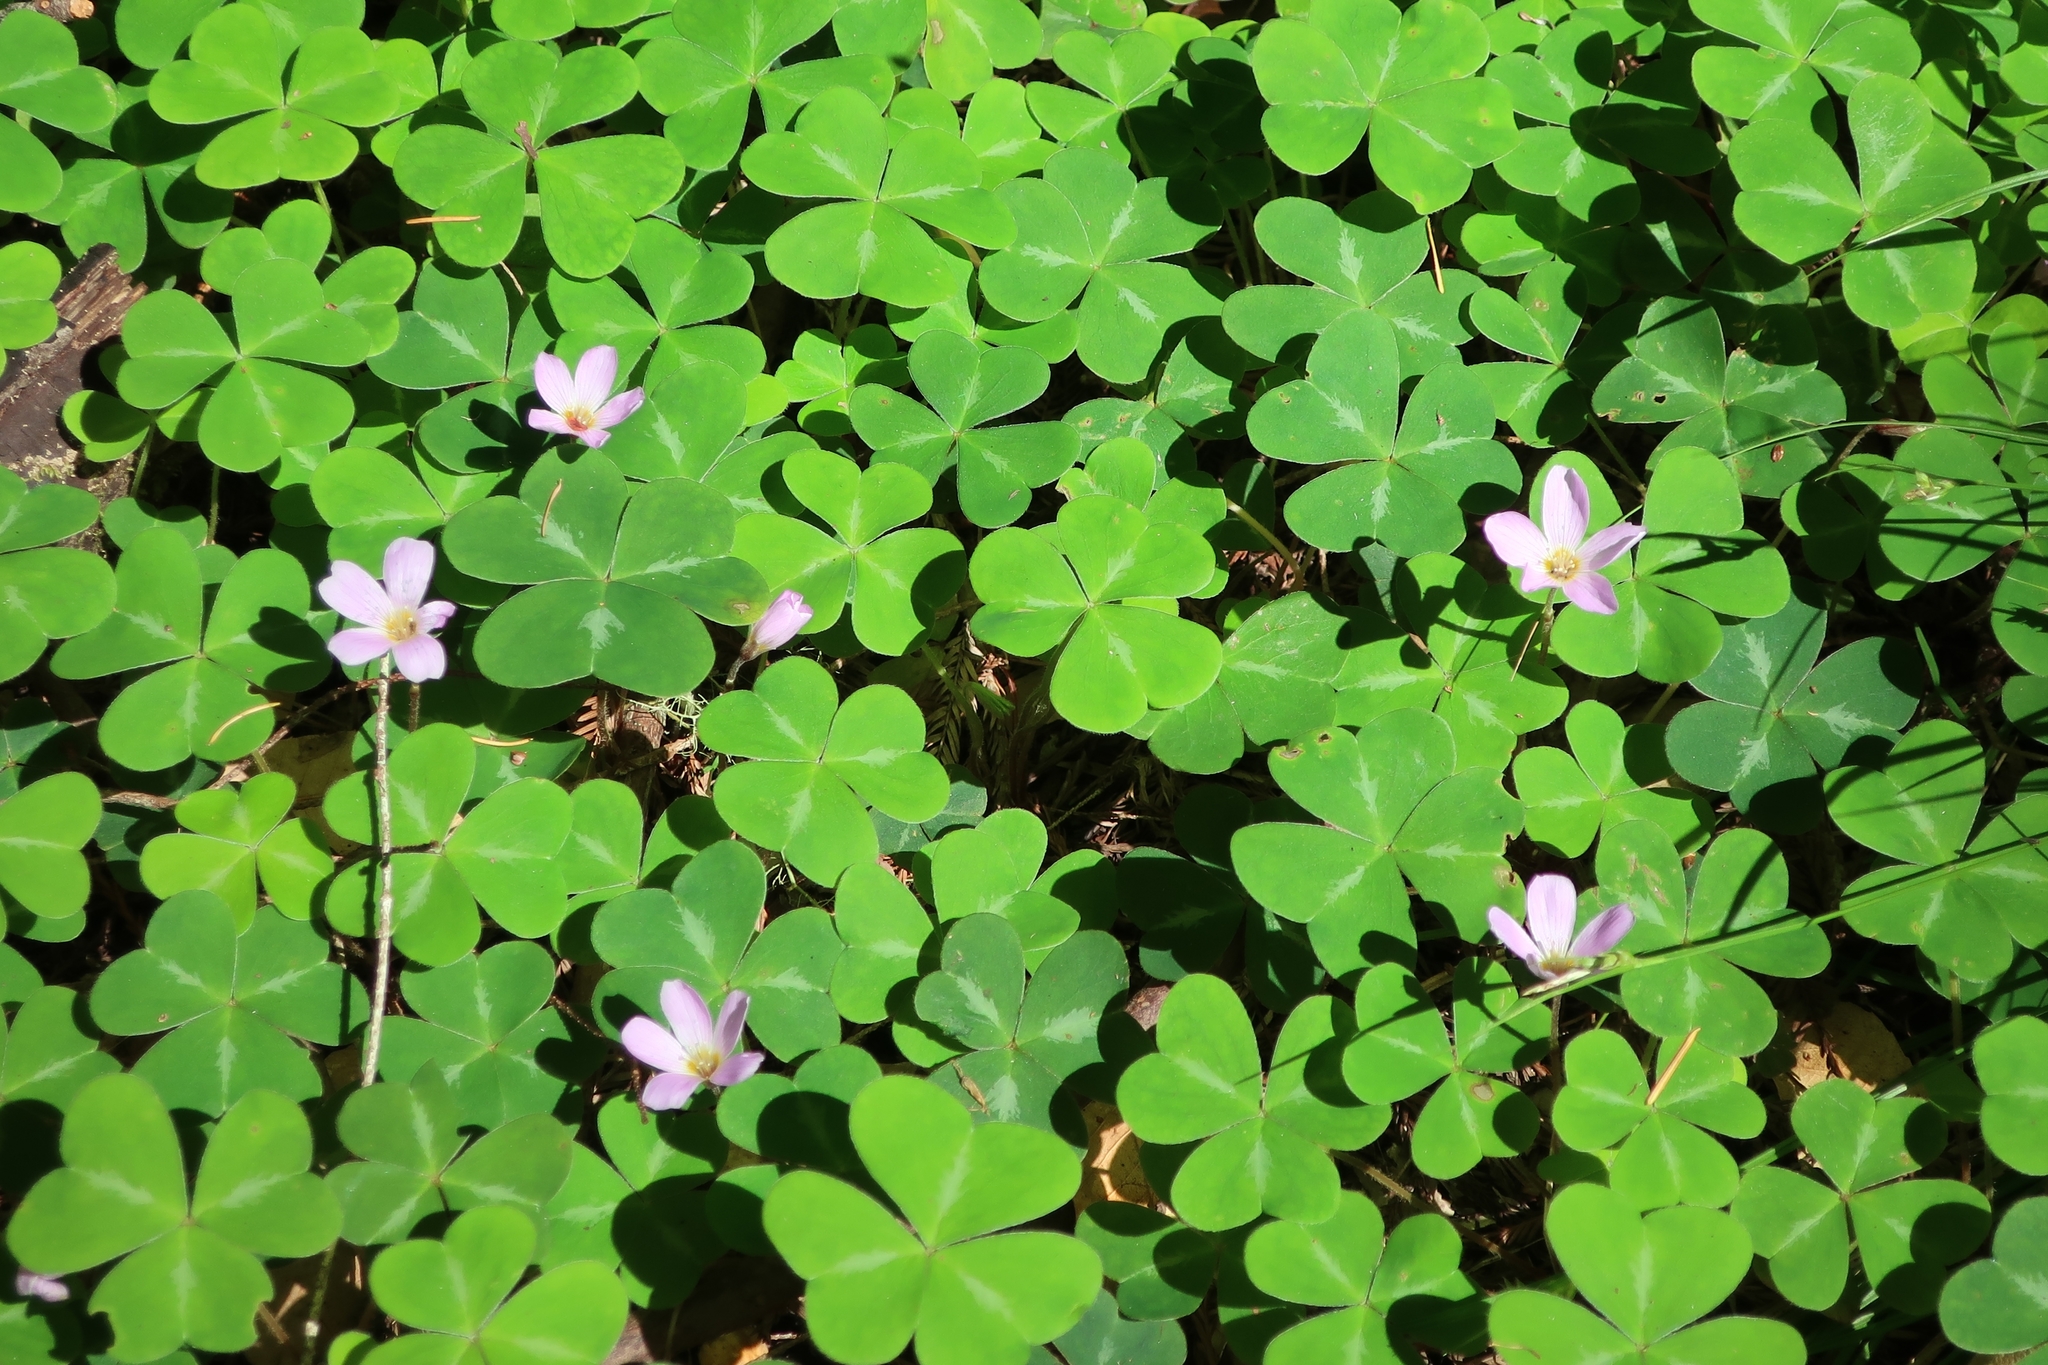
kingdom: Plantae
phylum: Tracheophyta
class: Magnoliopsida
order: Oxalidales
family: Oxalidaceae
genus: Oxalis
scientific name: Oxalis oregana
